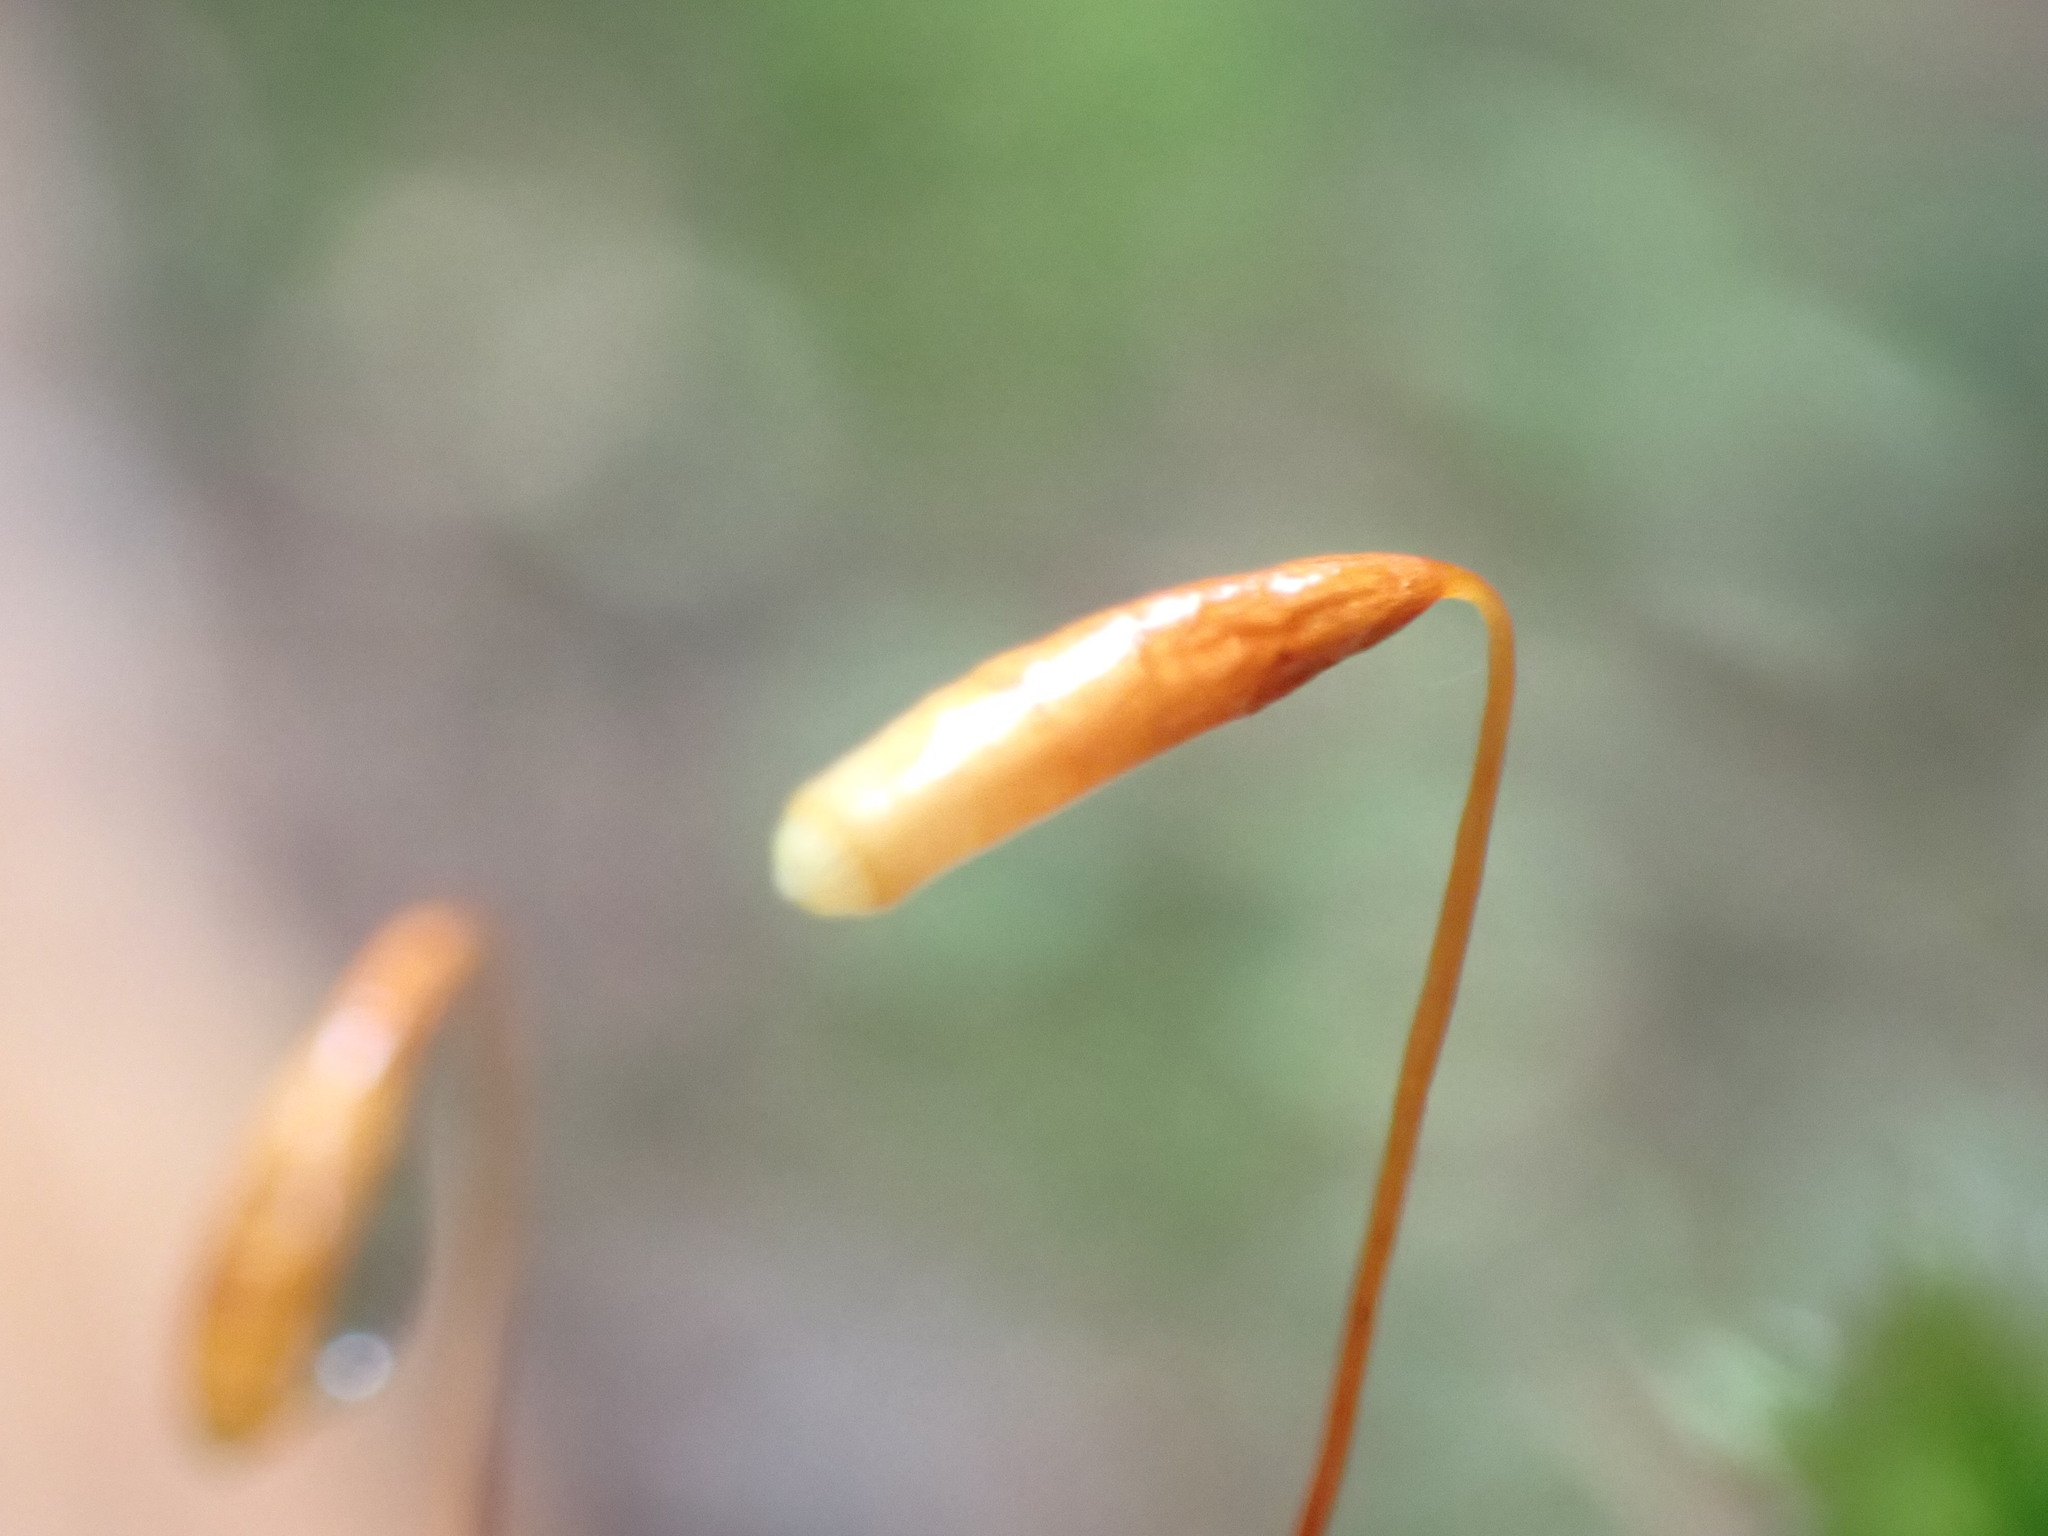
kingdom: Plantae
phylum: Bryophyta
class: Bryopsida
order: Bryales
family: Bryaceae
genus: Roellobryon
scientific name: Roellobryon roellii
